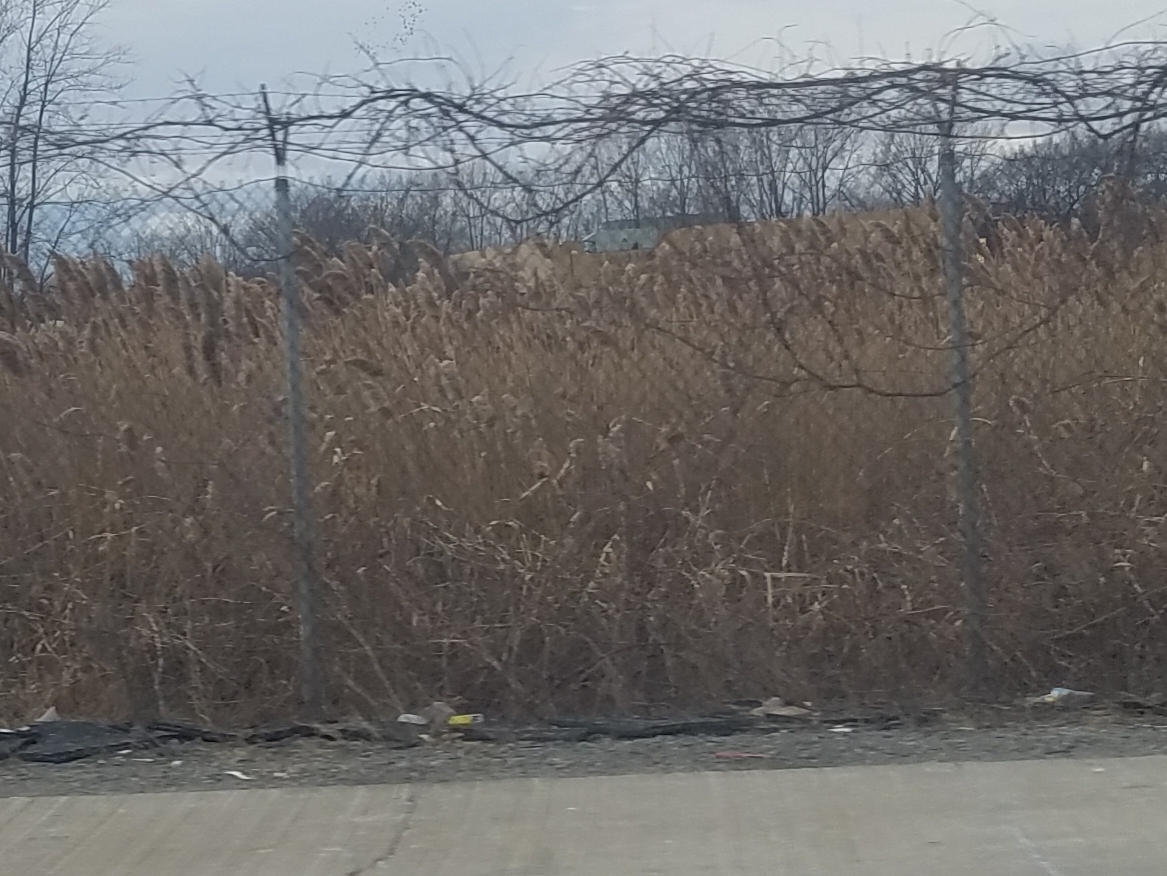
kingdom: Plantae
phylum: Tracheophyta
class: Liliopsida
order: Poales
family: Poaceae
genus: Phragmites
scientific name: Phragmites australis
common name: Common reed
